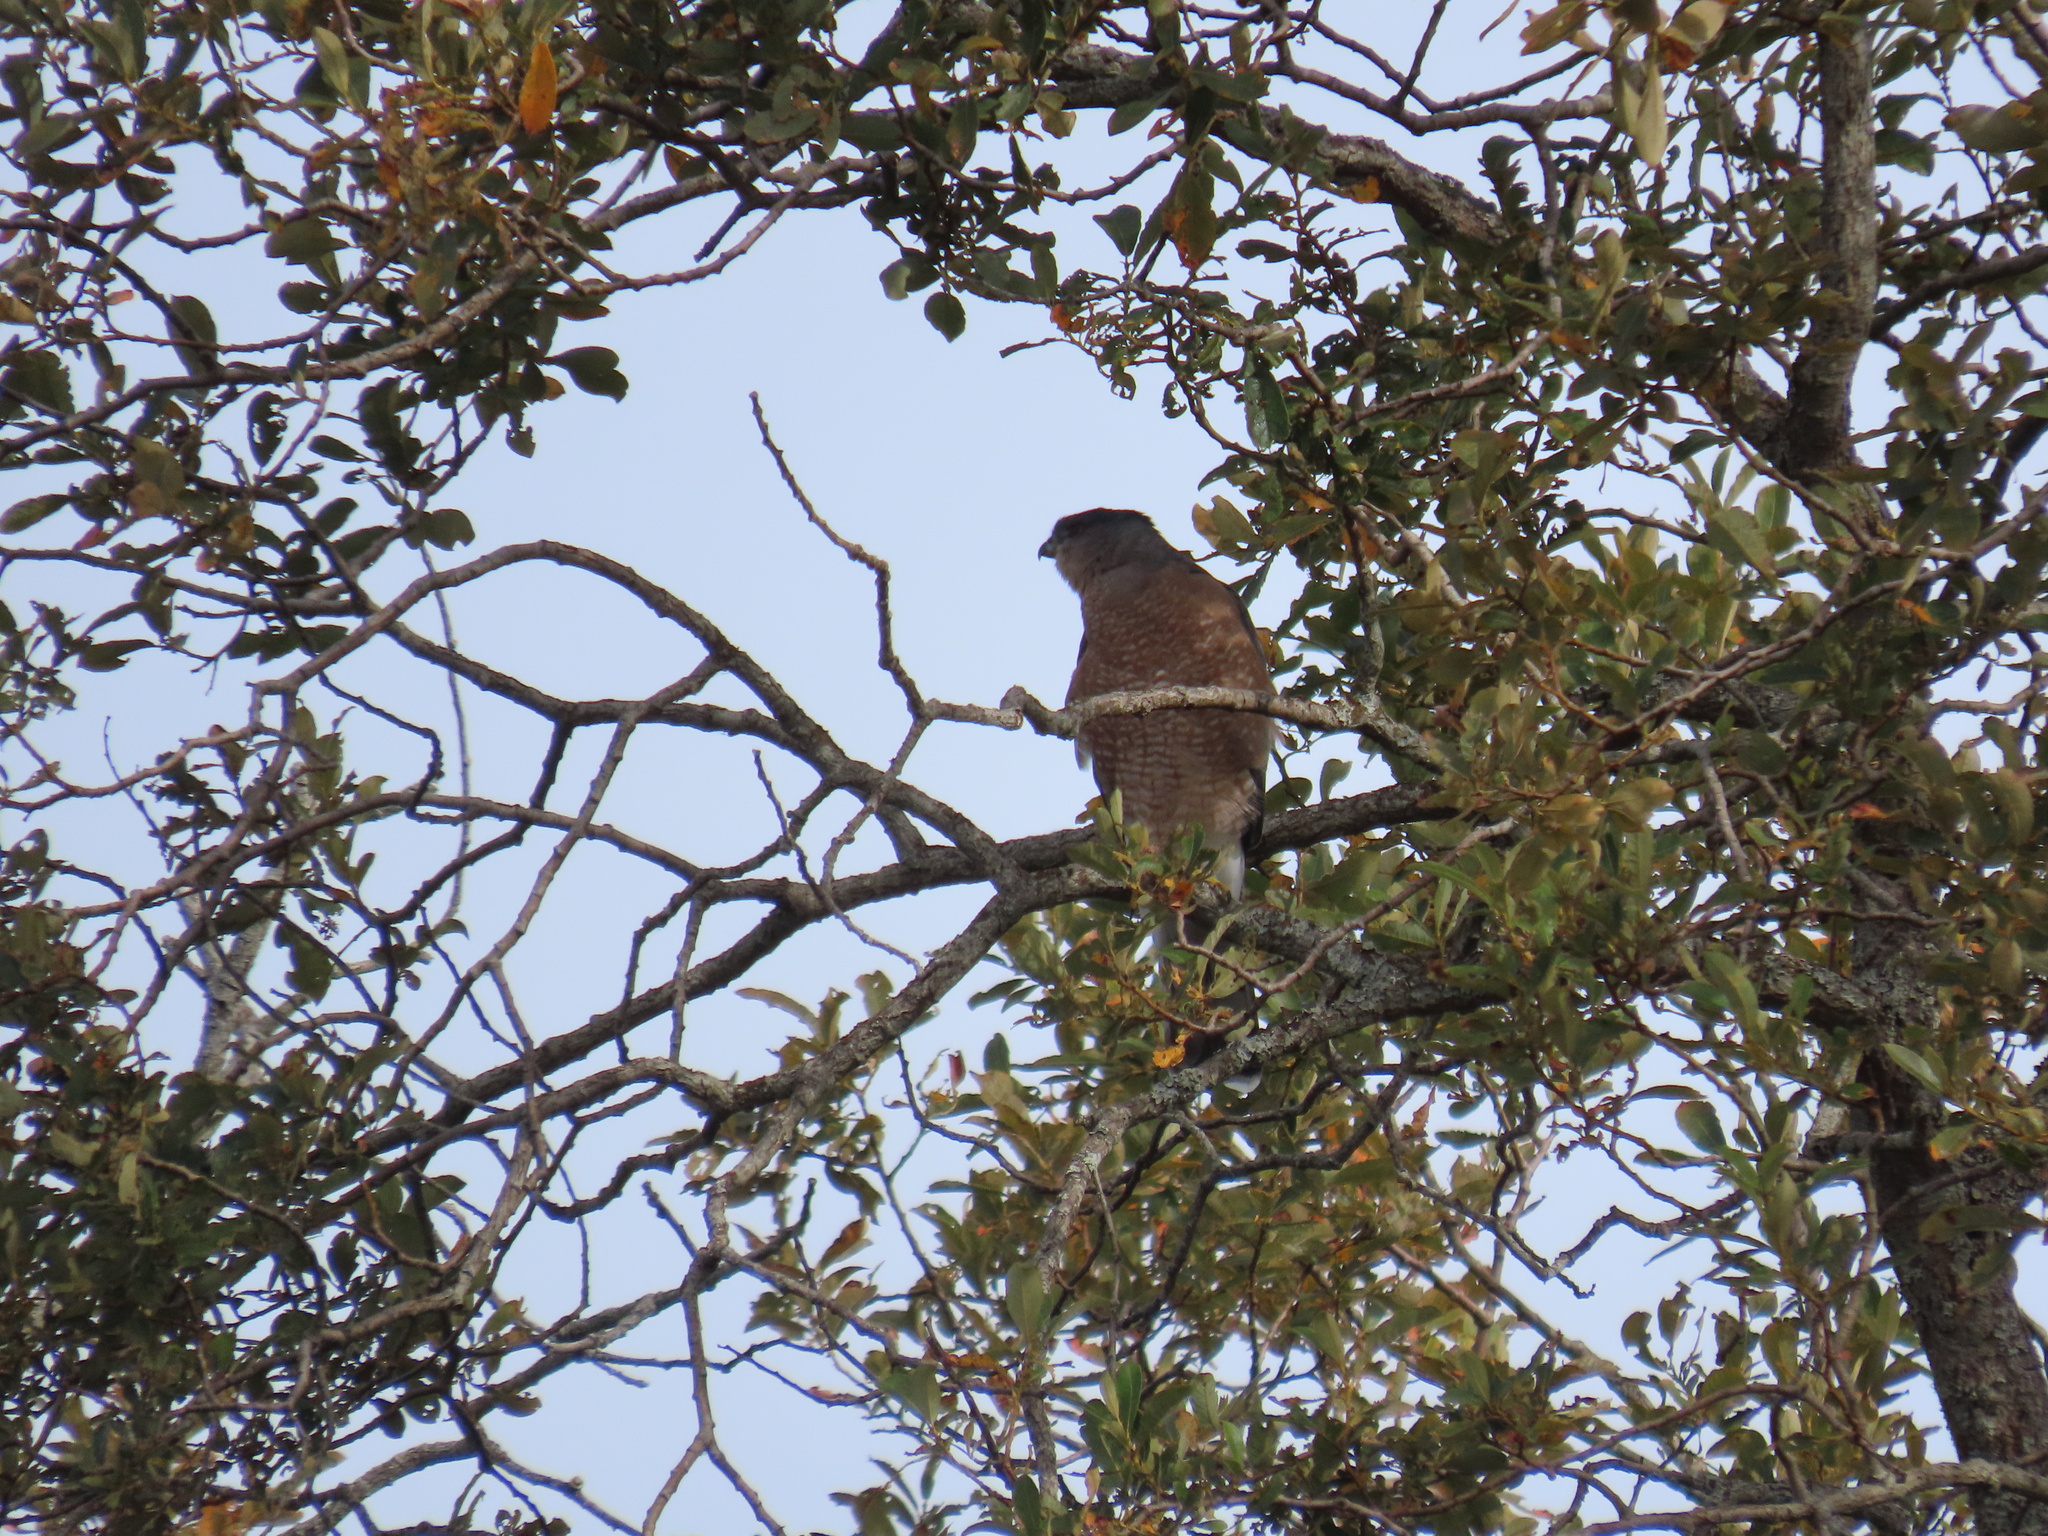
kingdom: Animalia
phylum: Chordata
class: Aves
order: Accipitriformes
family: Accipitridae
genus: Accipiter
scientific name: Accipiter cooperii
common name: Cooper's hawk
